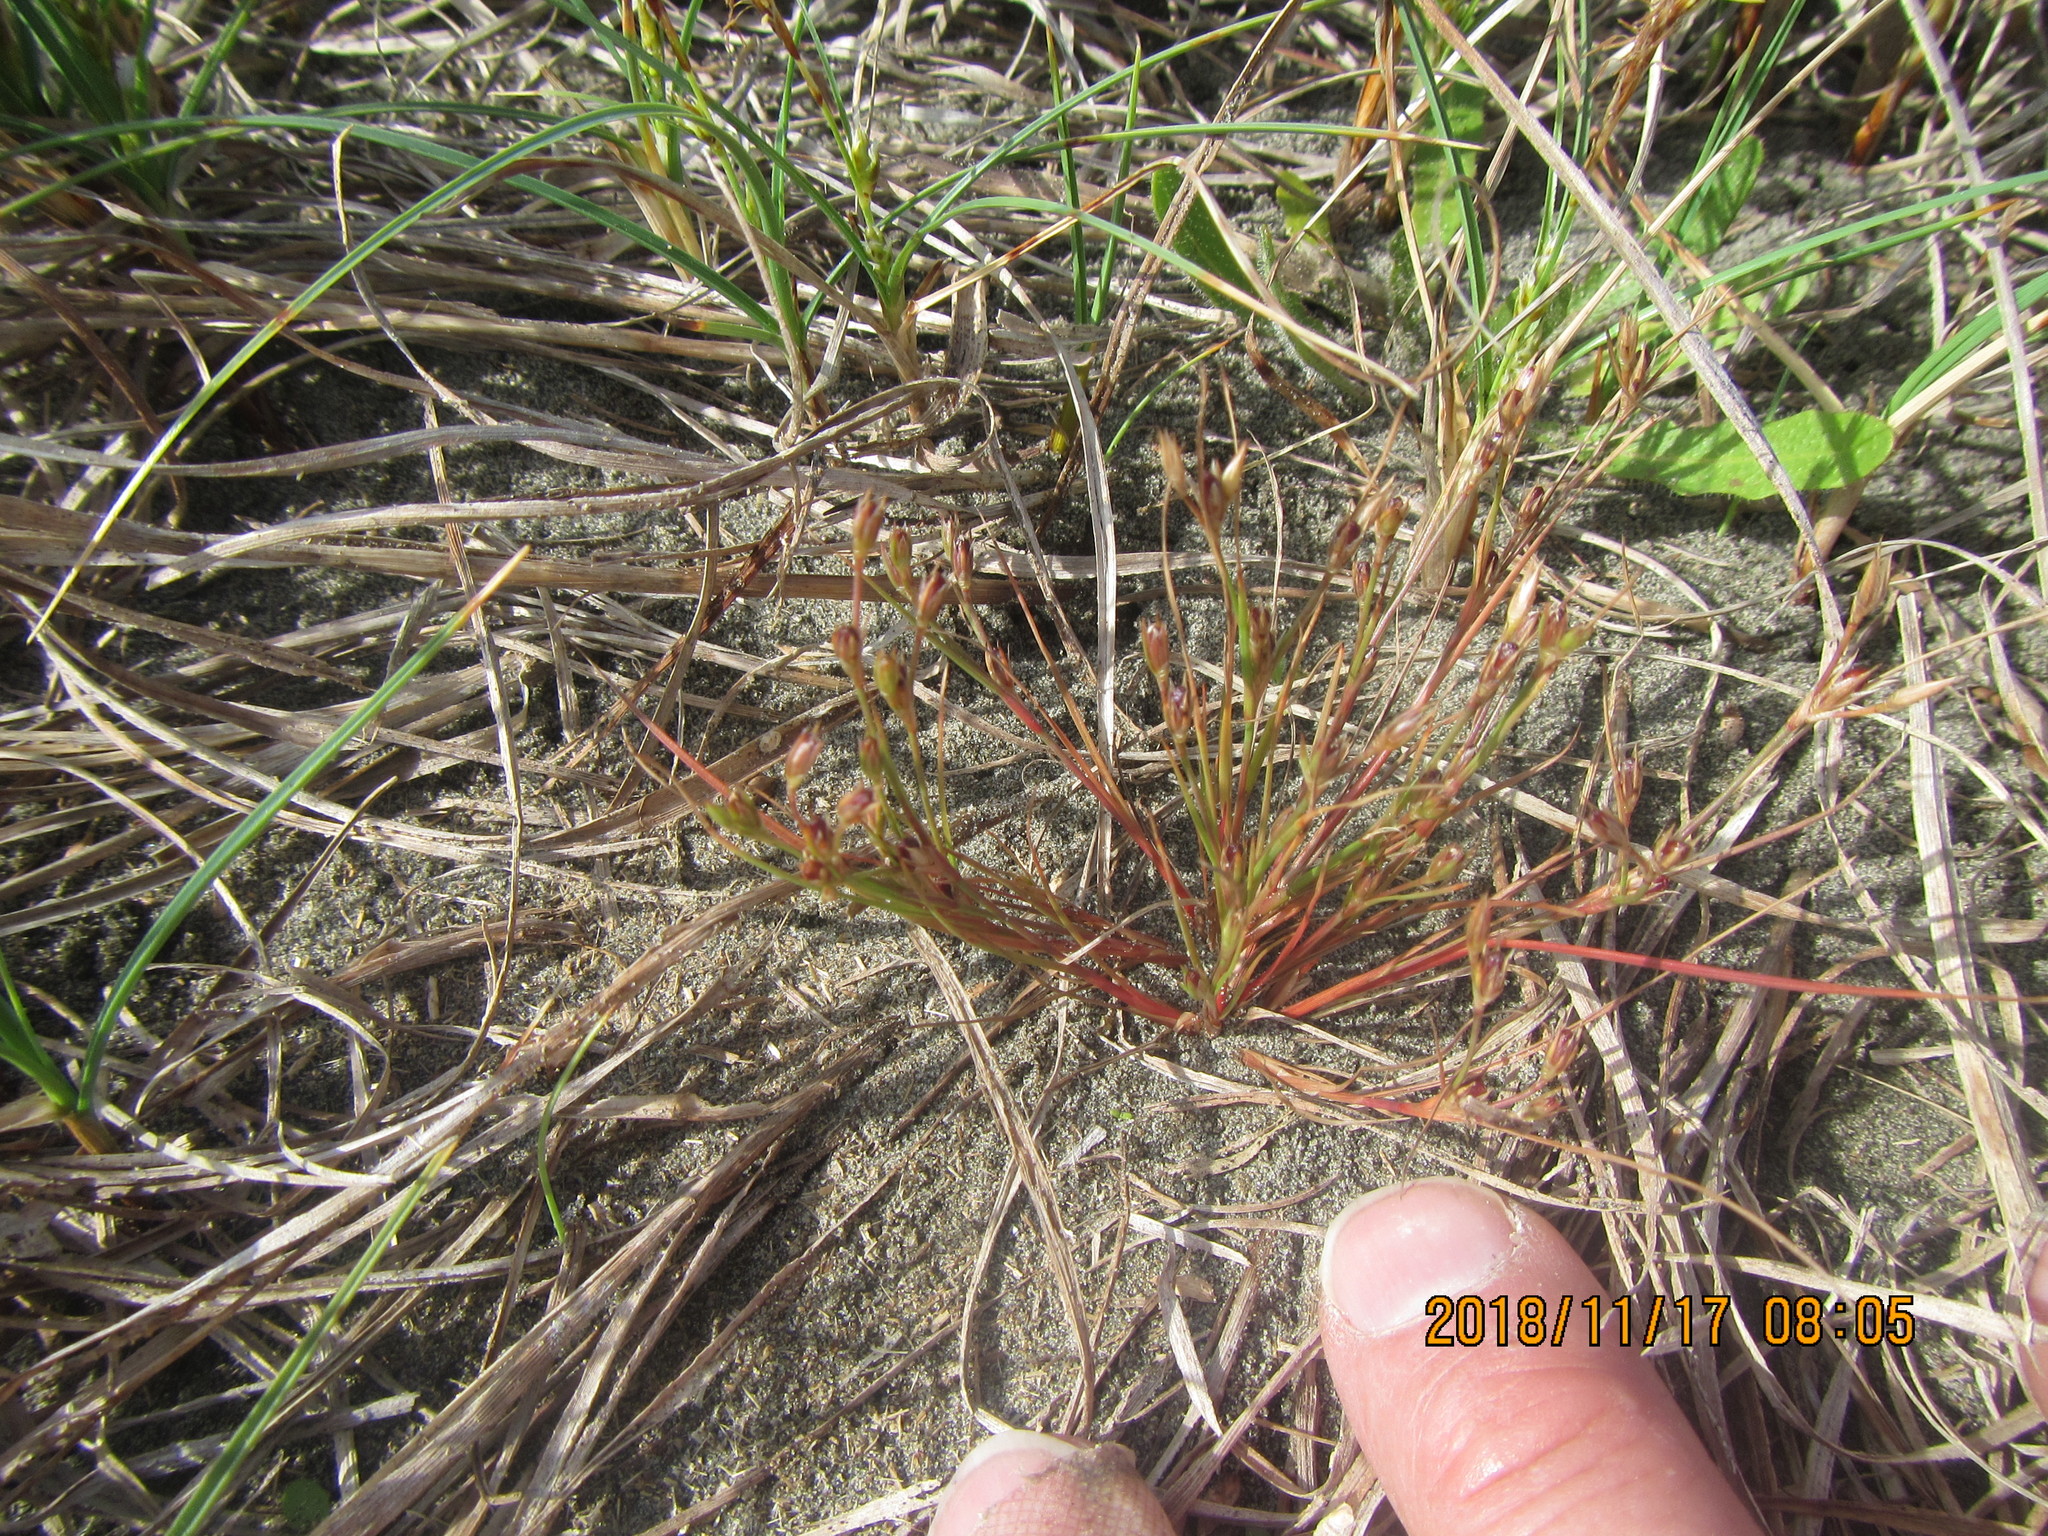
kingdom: Plantae
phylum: Tracheophyta
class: Liliopsida
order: Poales
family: Juncaceae
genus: Juncus
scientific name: Juncus bufonius
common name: Toad rush
